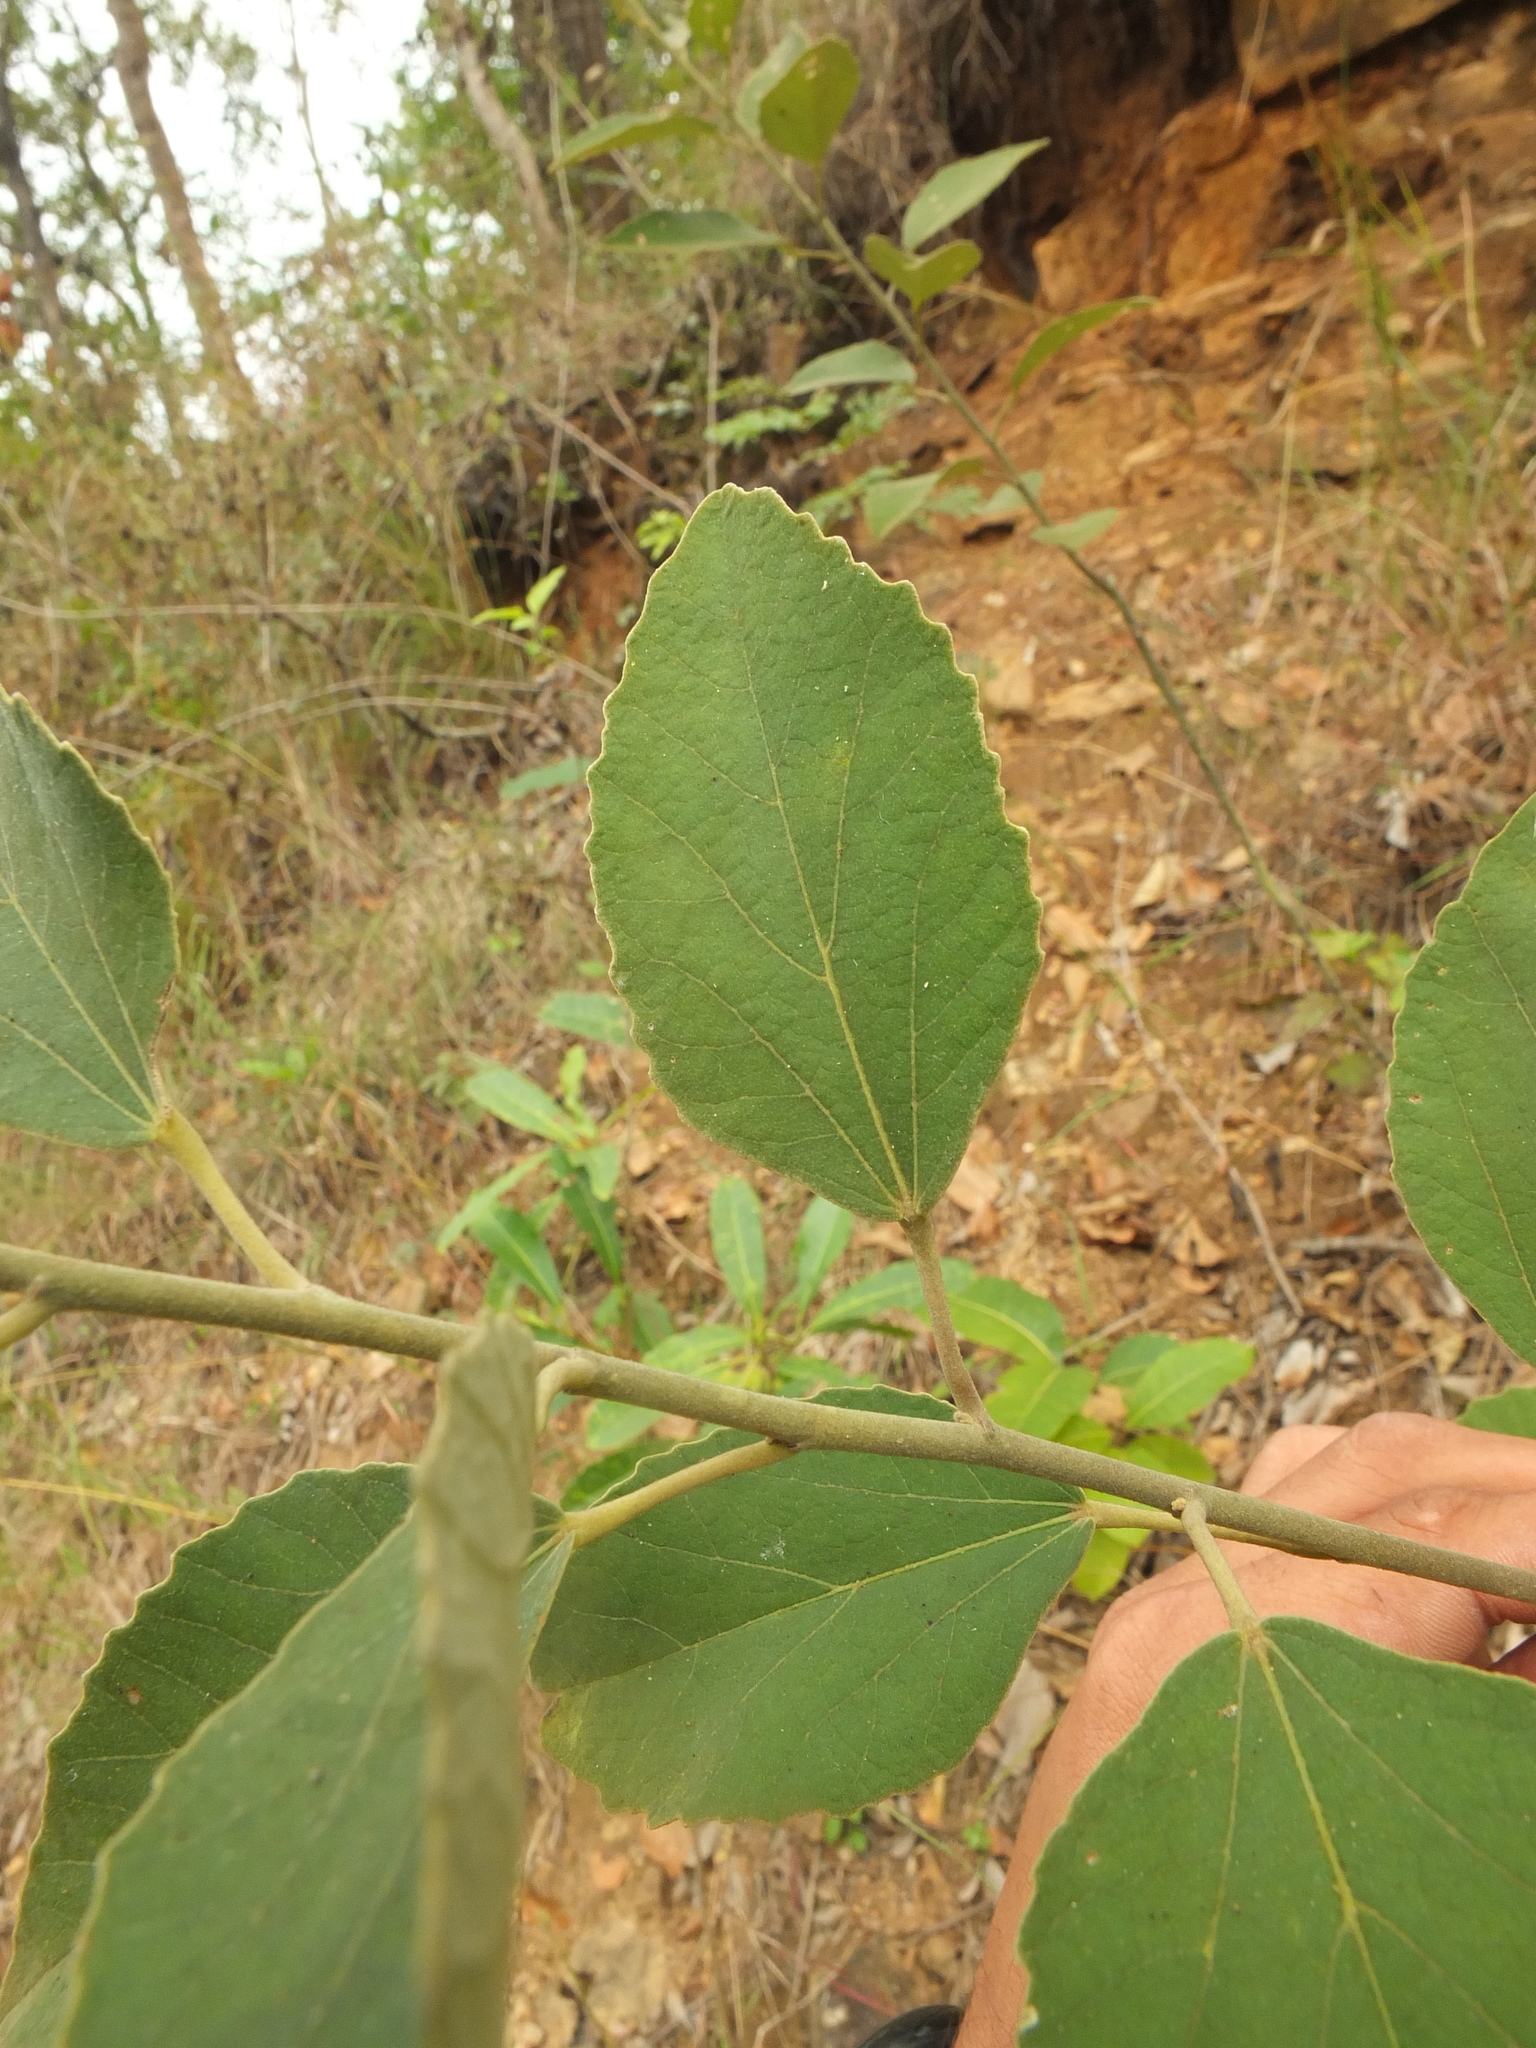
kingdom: Plantae
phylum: Tracheophyta
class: Magnoliopsida
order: Malvales
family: Malvaceae
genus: Decaschistia
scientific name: Decaschistia crotonifolia
